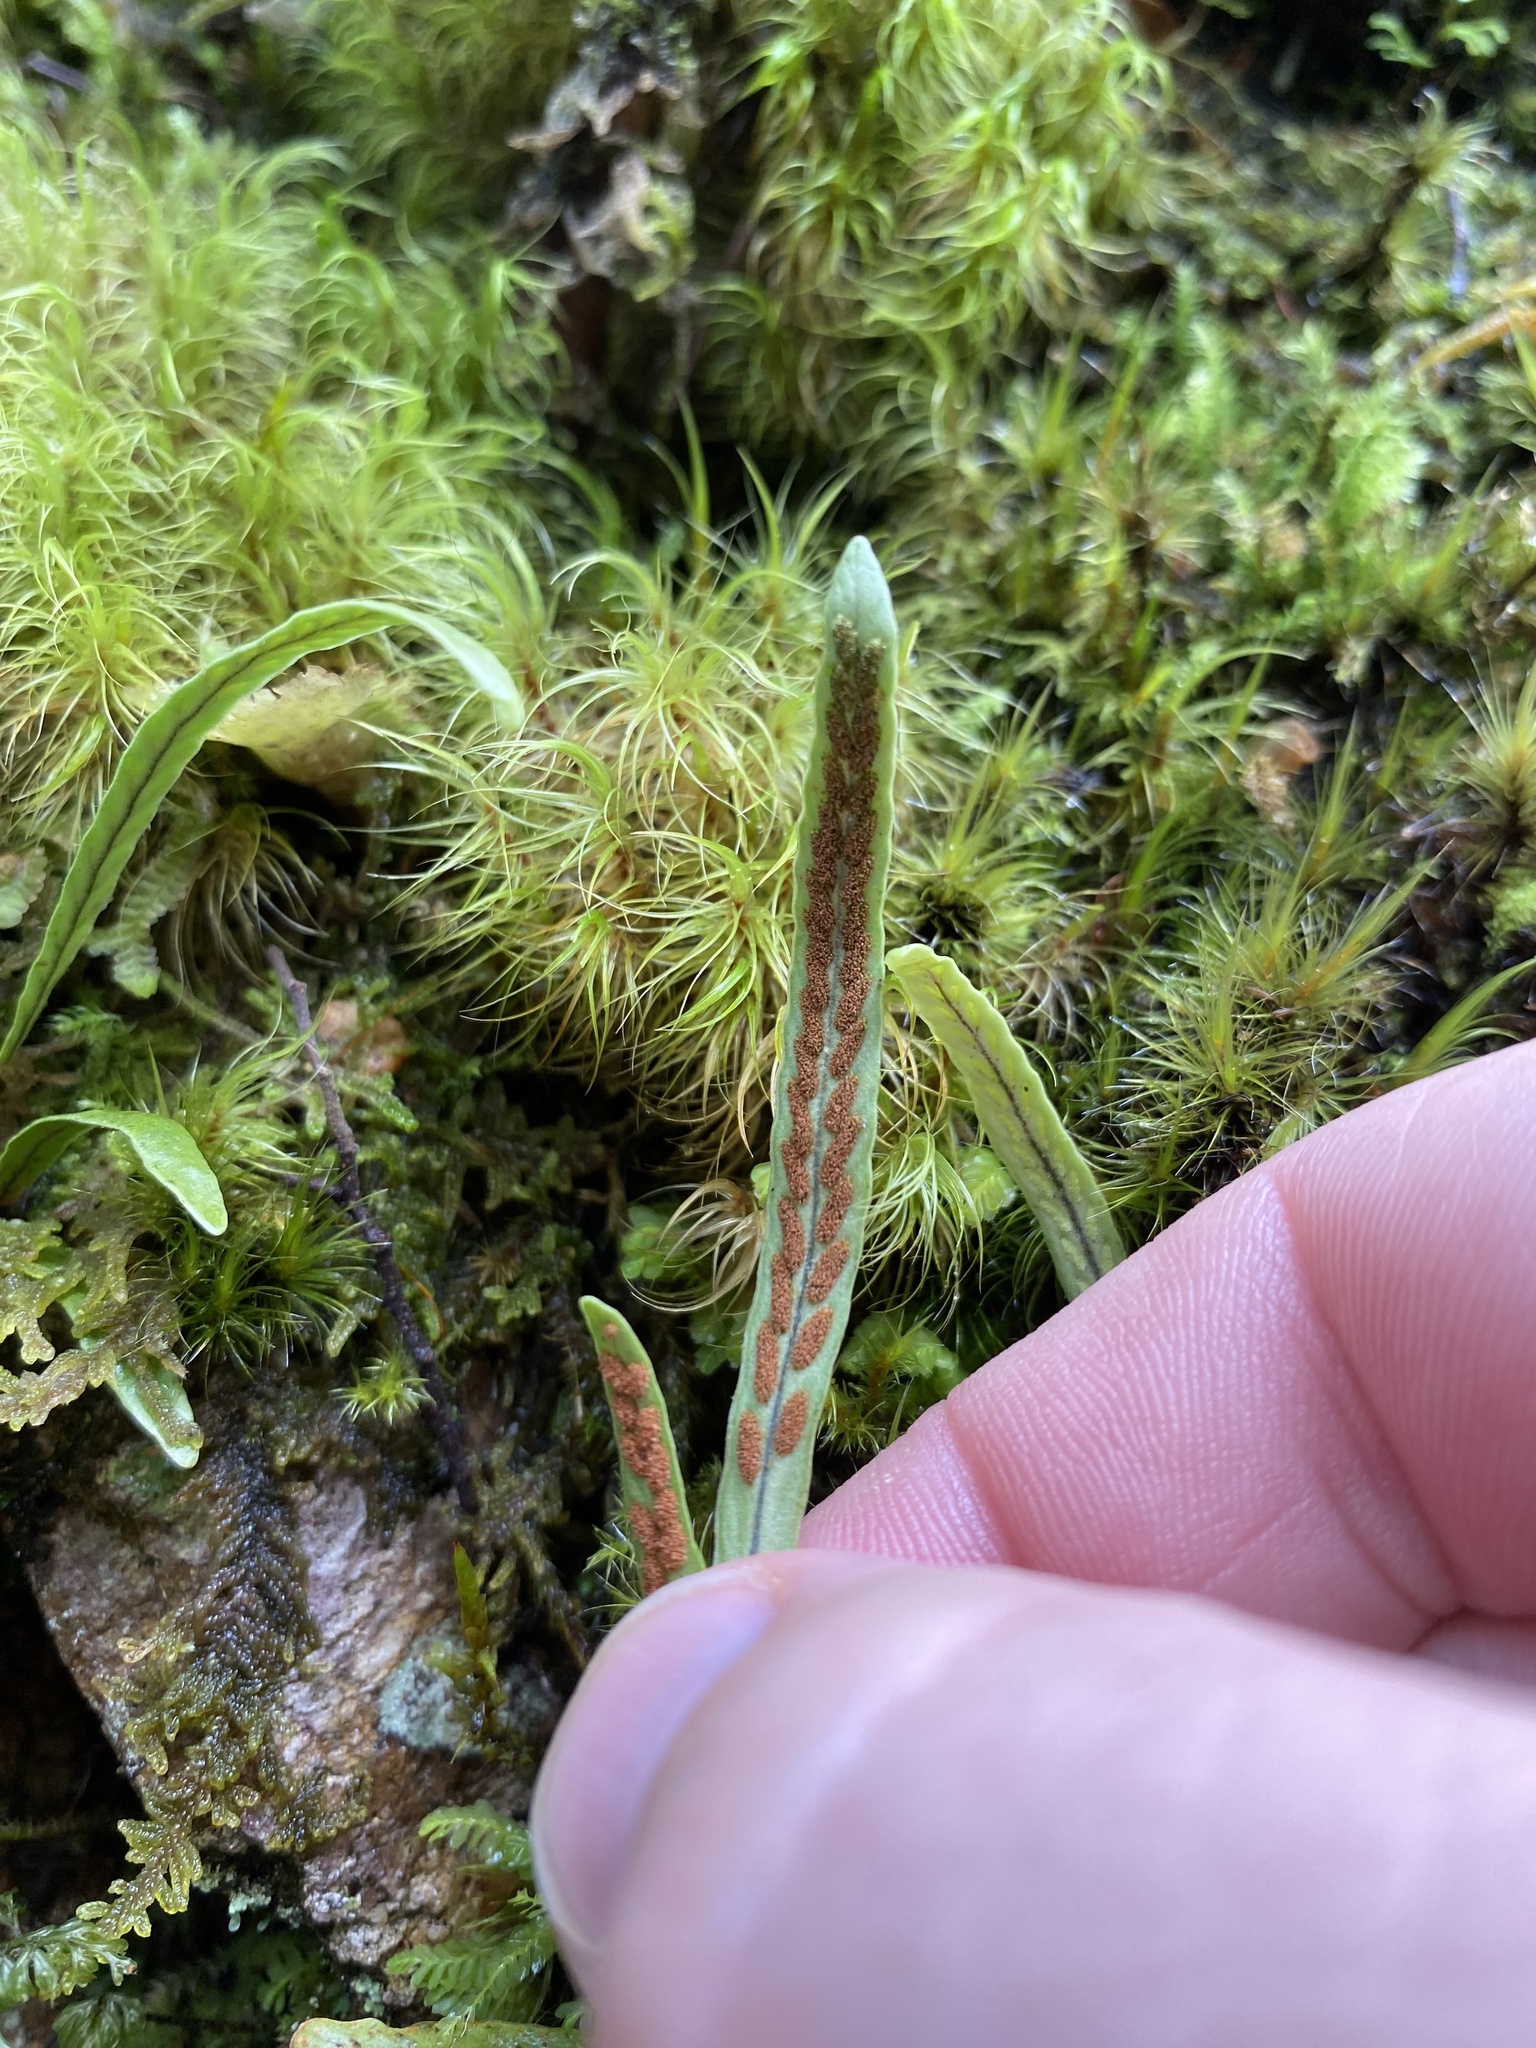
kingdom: Plantae
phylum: Tracheophyta
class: Polypodiopsida
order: Polypodiales
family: Polypodiaceae
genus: Notogrammitis
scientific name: Notogrammitis billardierei
